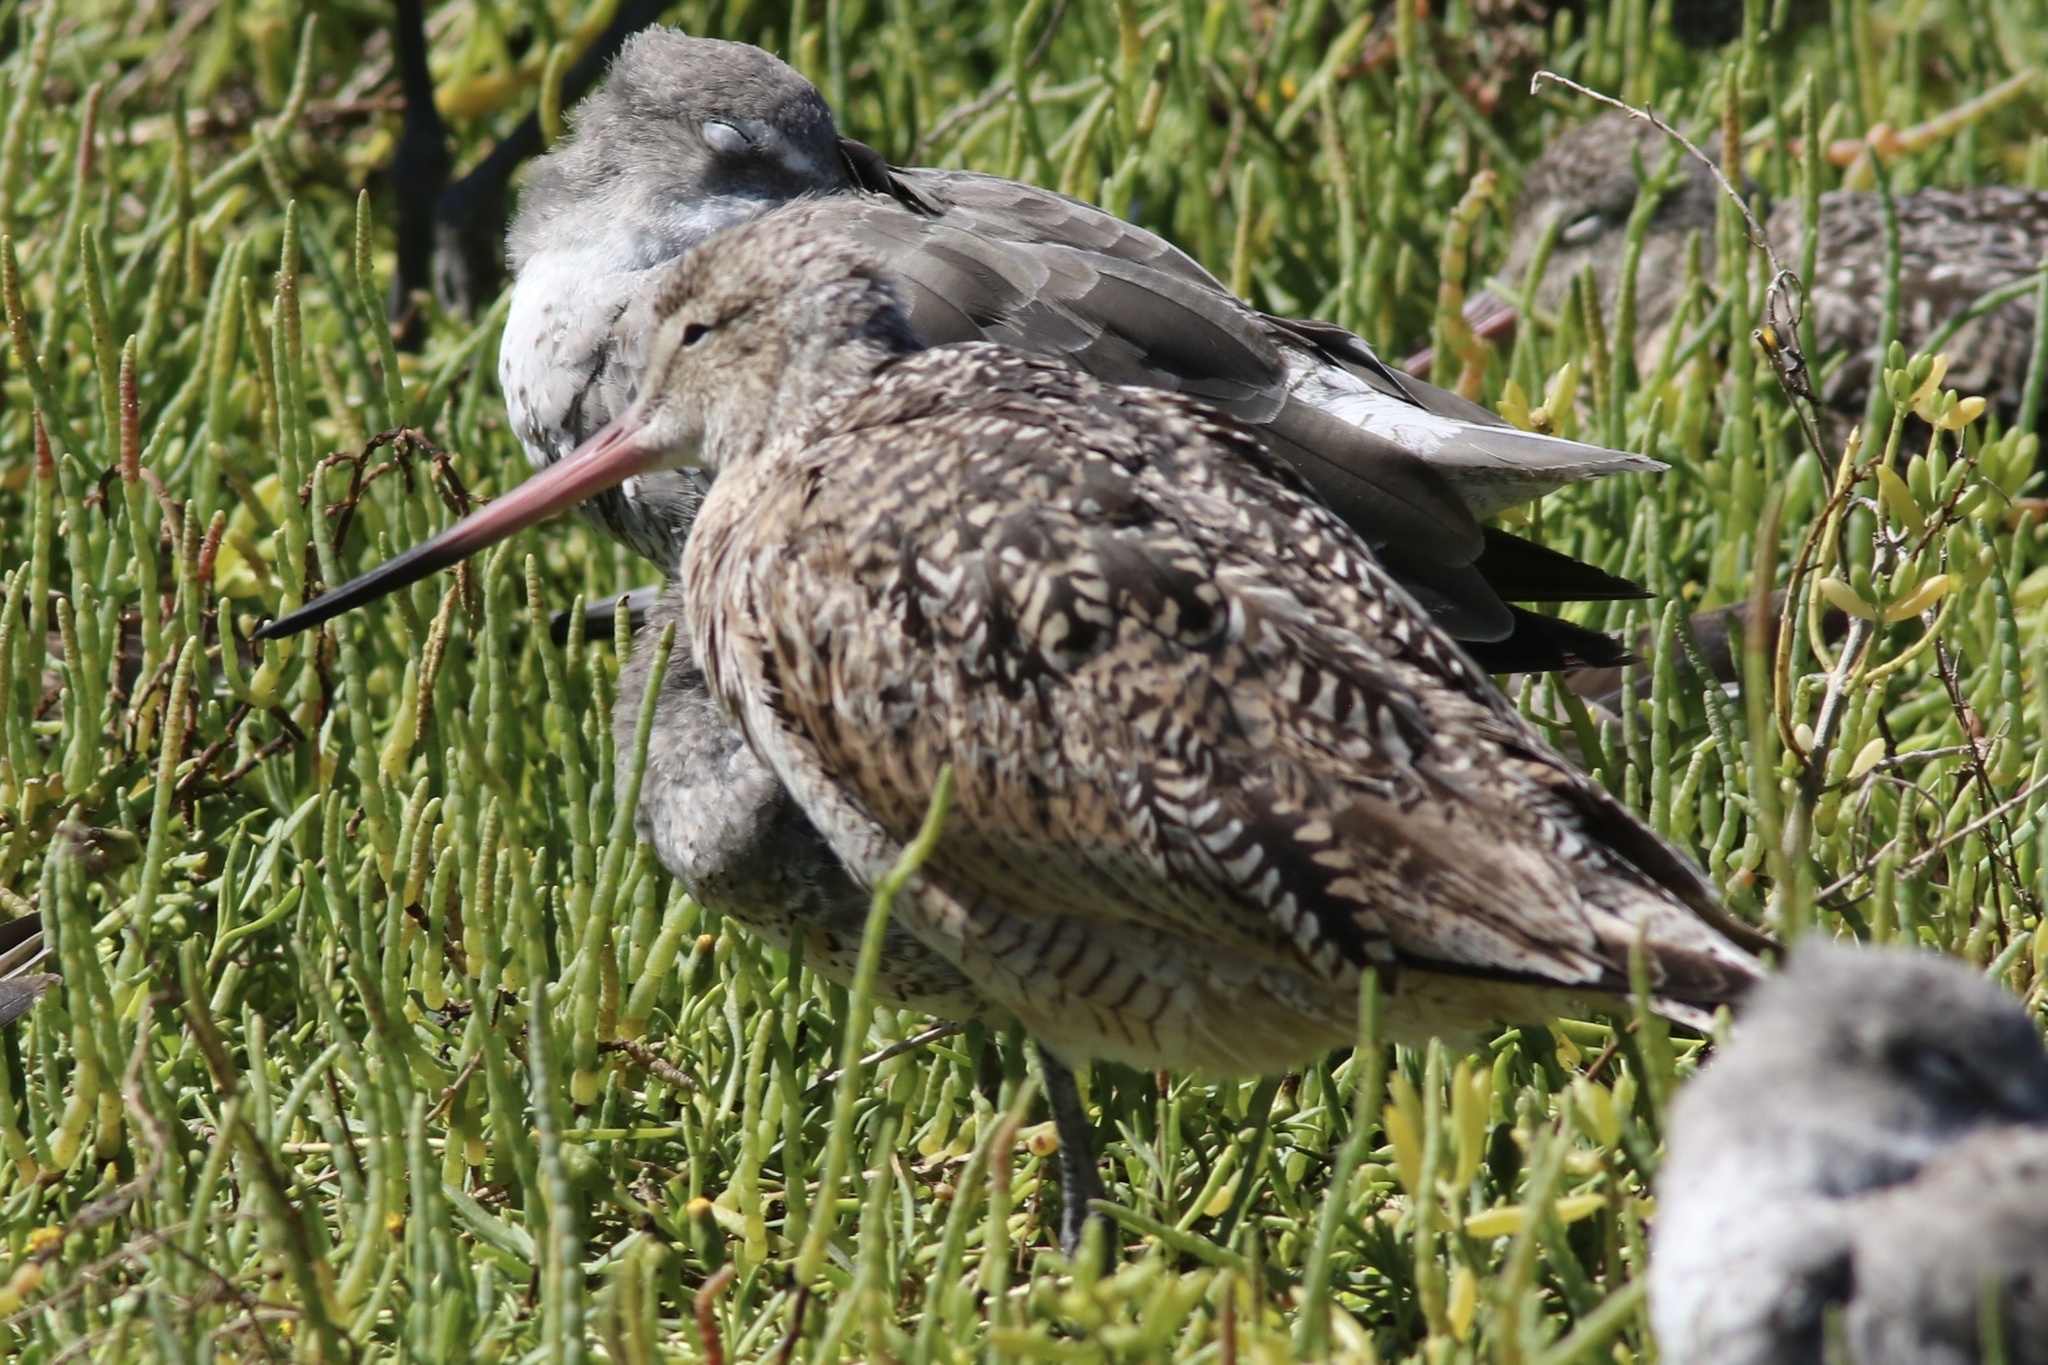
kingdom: Animalia
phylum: Chordata
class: Aves
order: Charadriiformes
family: Scolopacidae
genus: Limosa
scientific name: Limosa fedoa
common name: Marbled godwit
